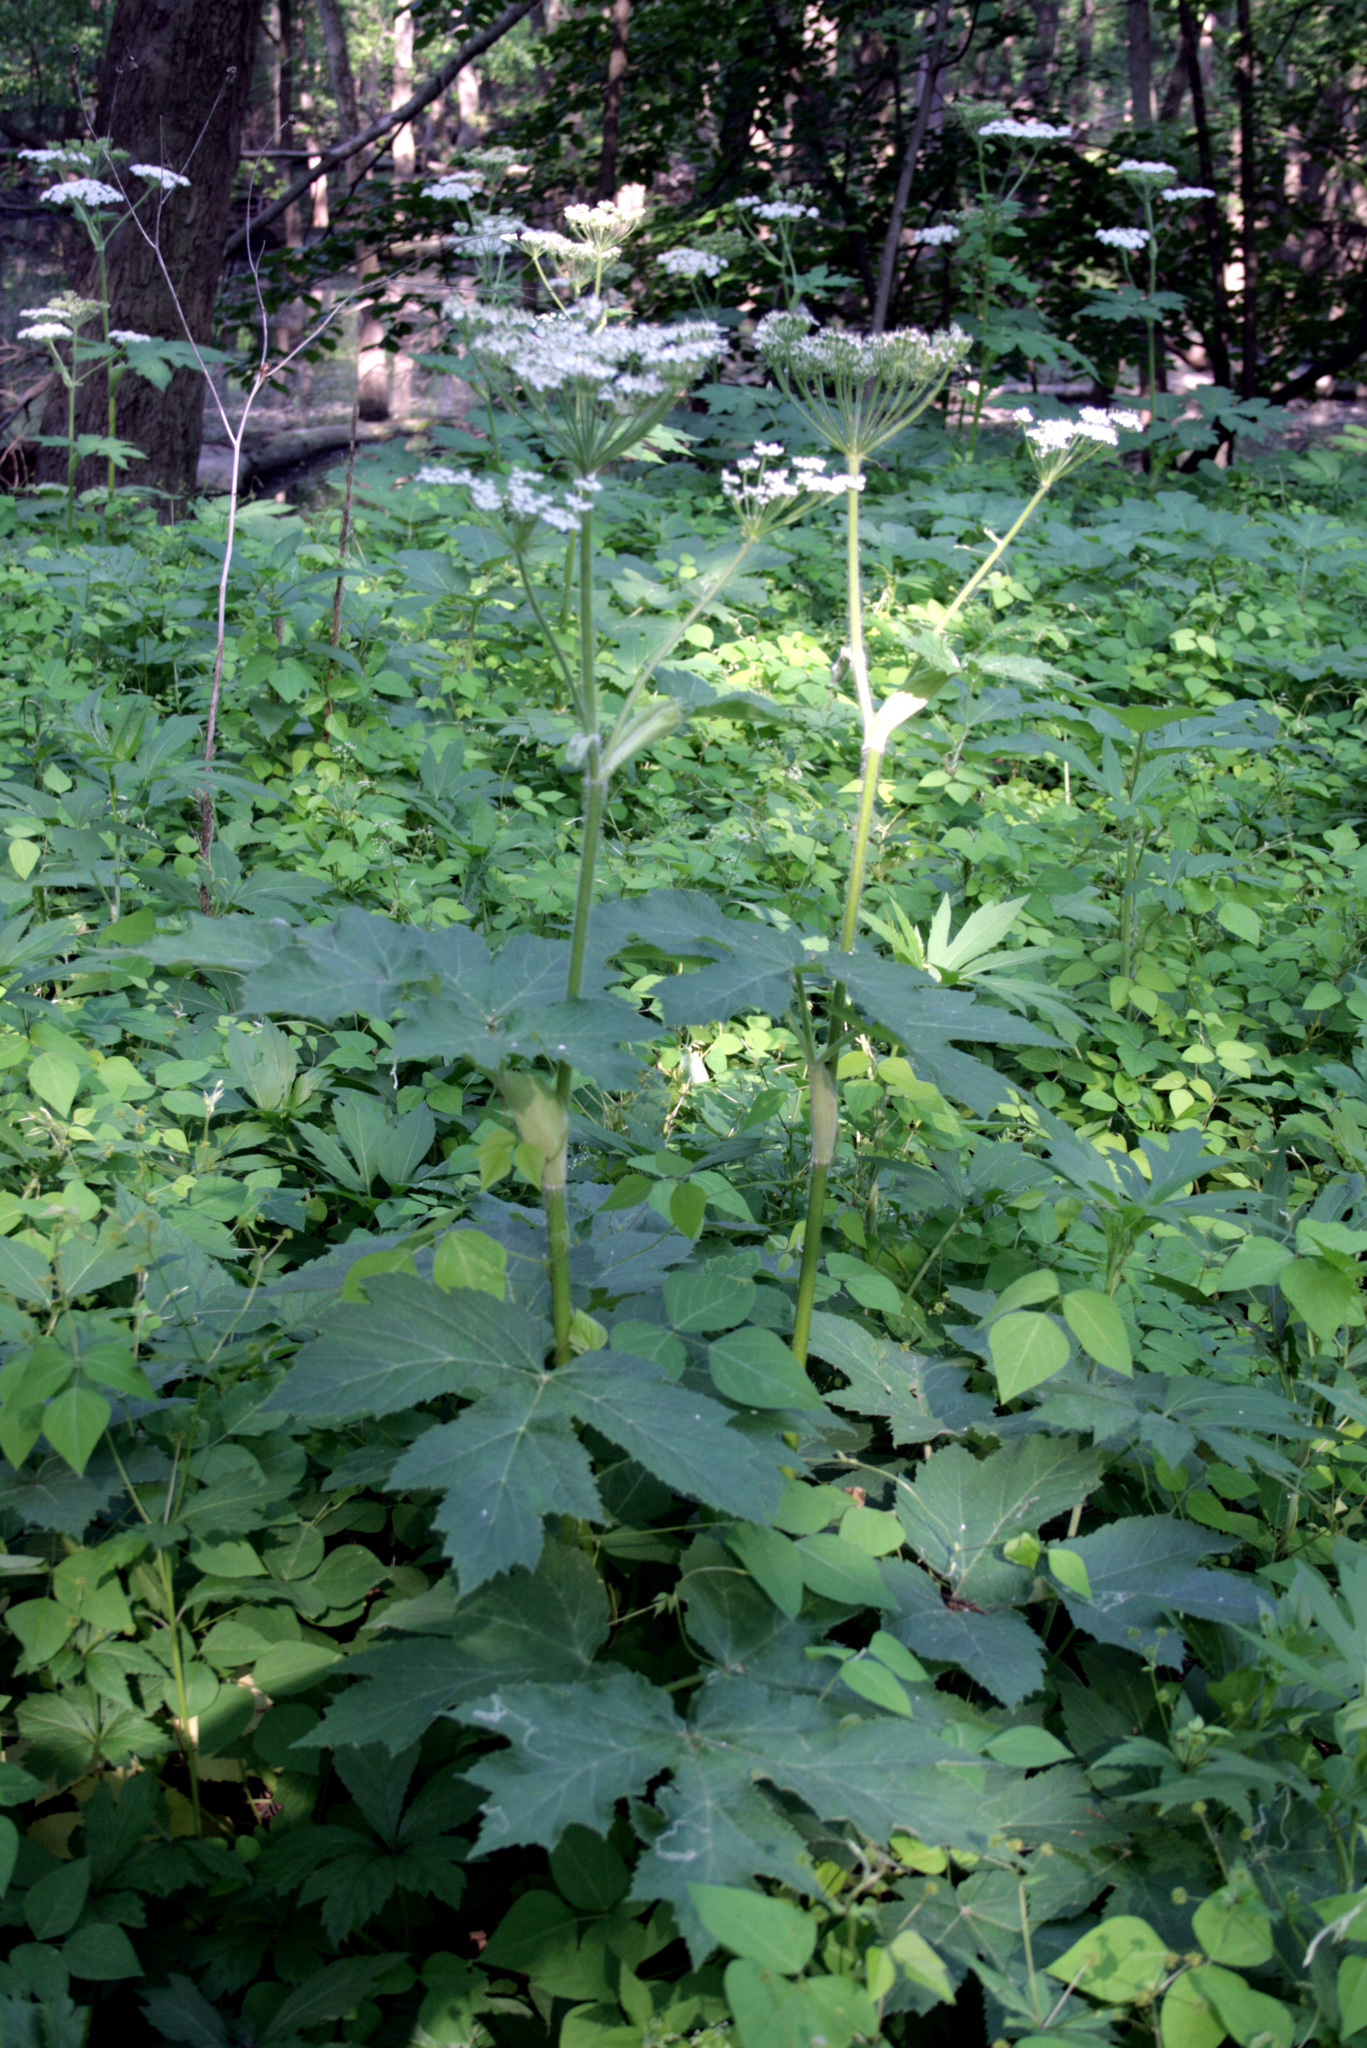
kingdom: Plantae
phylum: Tracheophyta
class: Magnoliopsida
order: Apiales
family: Apiaceae
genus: Heracleum
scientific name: Heracleum maximum
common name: American cow parsnip
